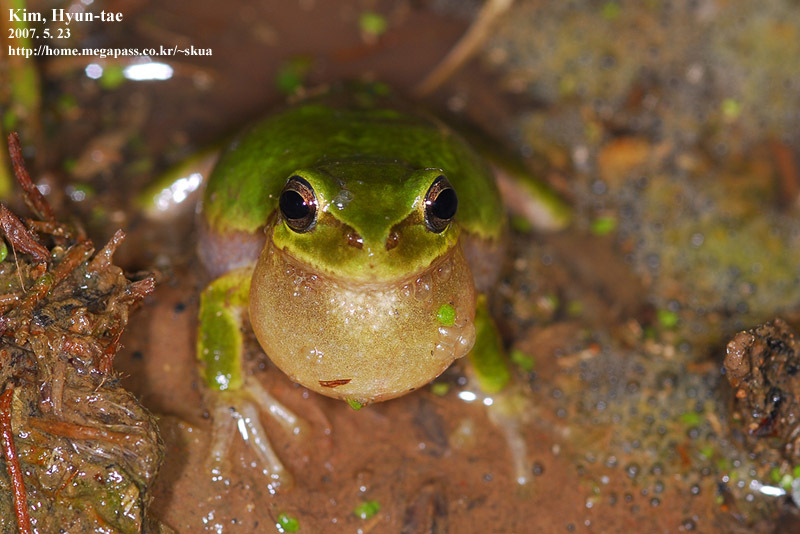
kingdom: Animalia
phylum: Chordata
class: Amphibia
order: Anura
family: Hylidae
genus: Dryophytes
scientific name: Dryophytes japonicus
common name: Japanese treefrog
